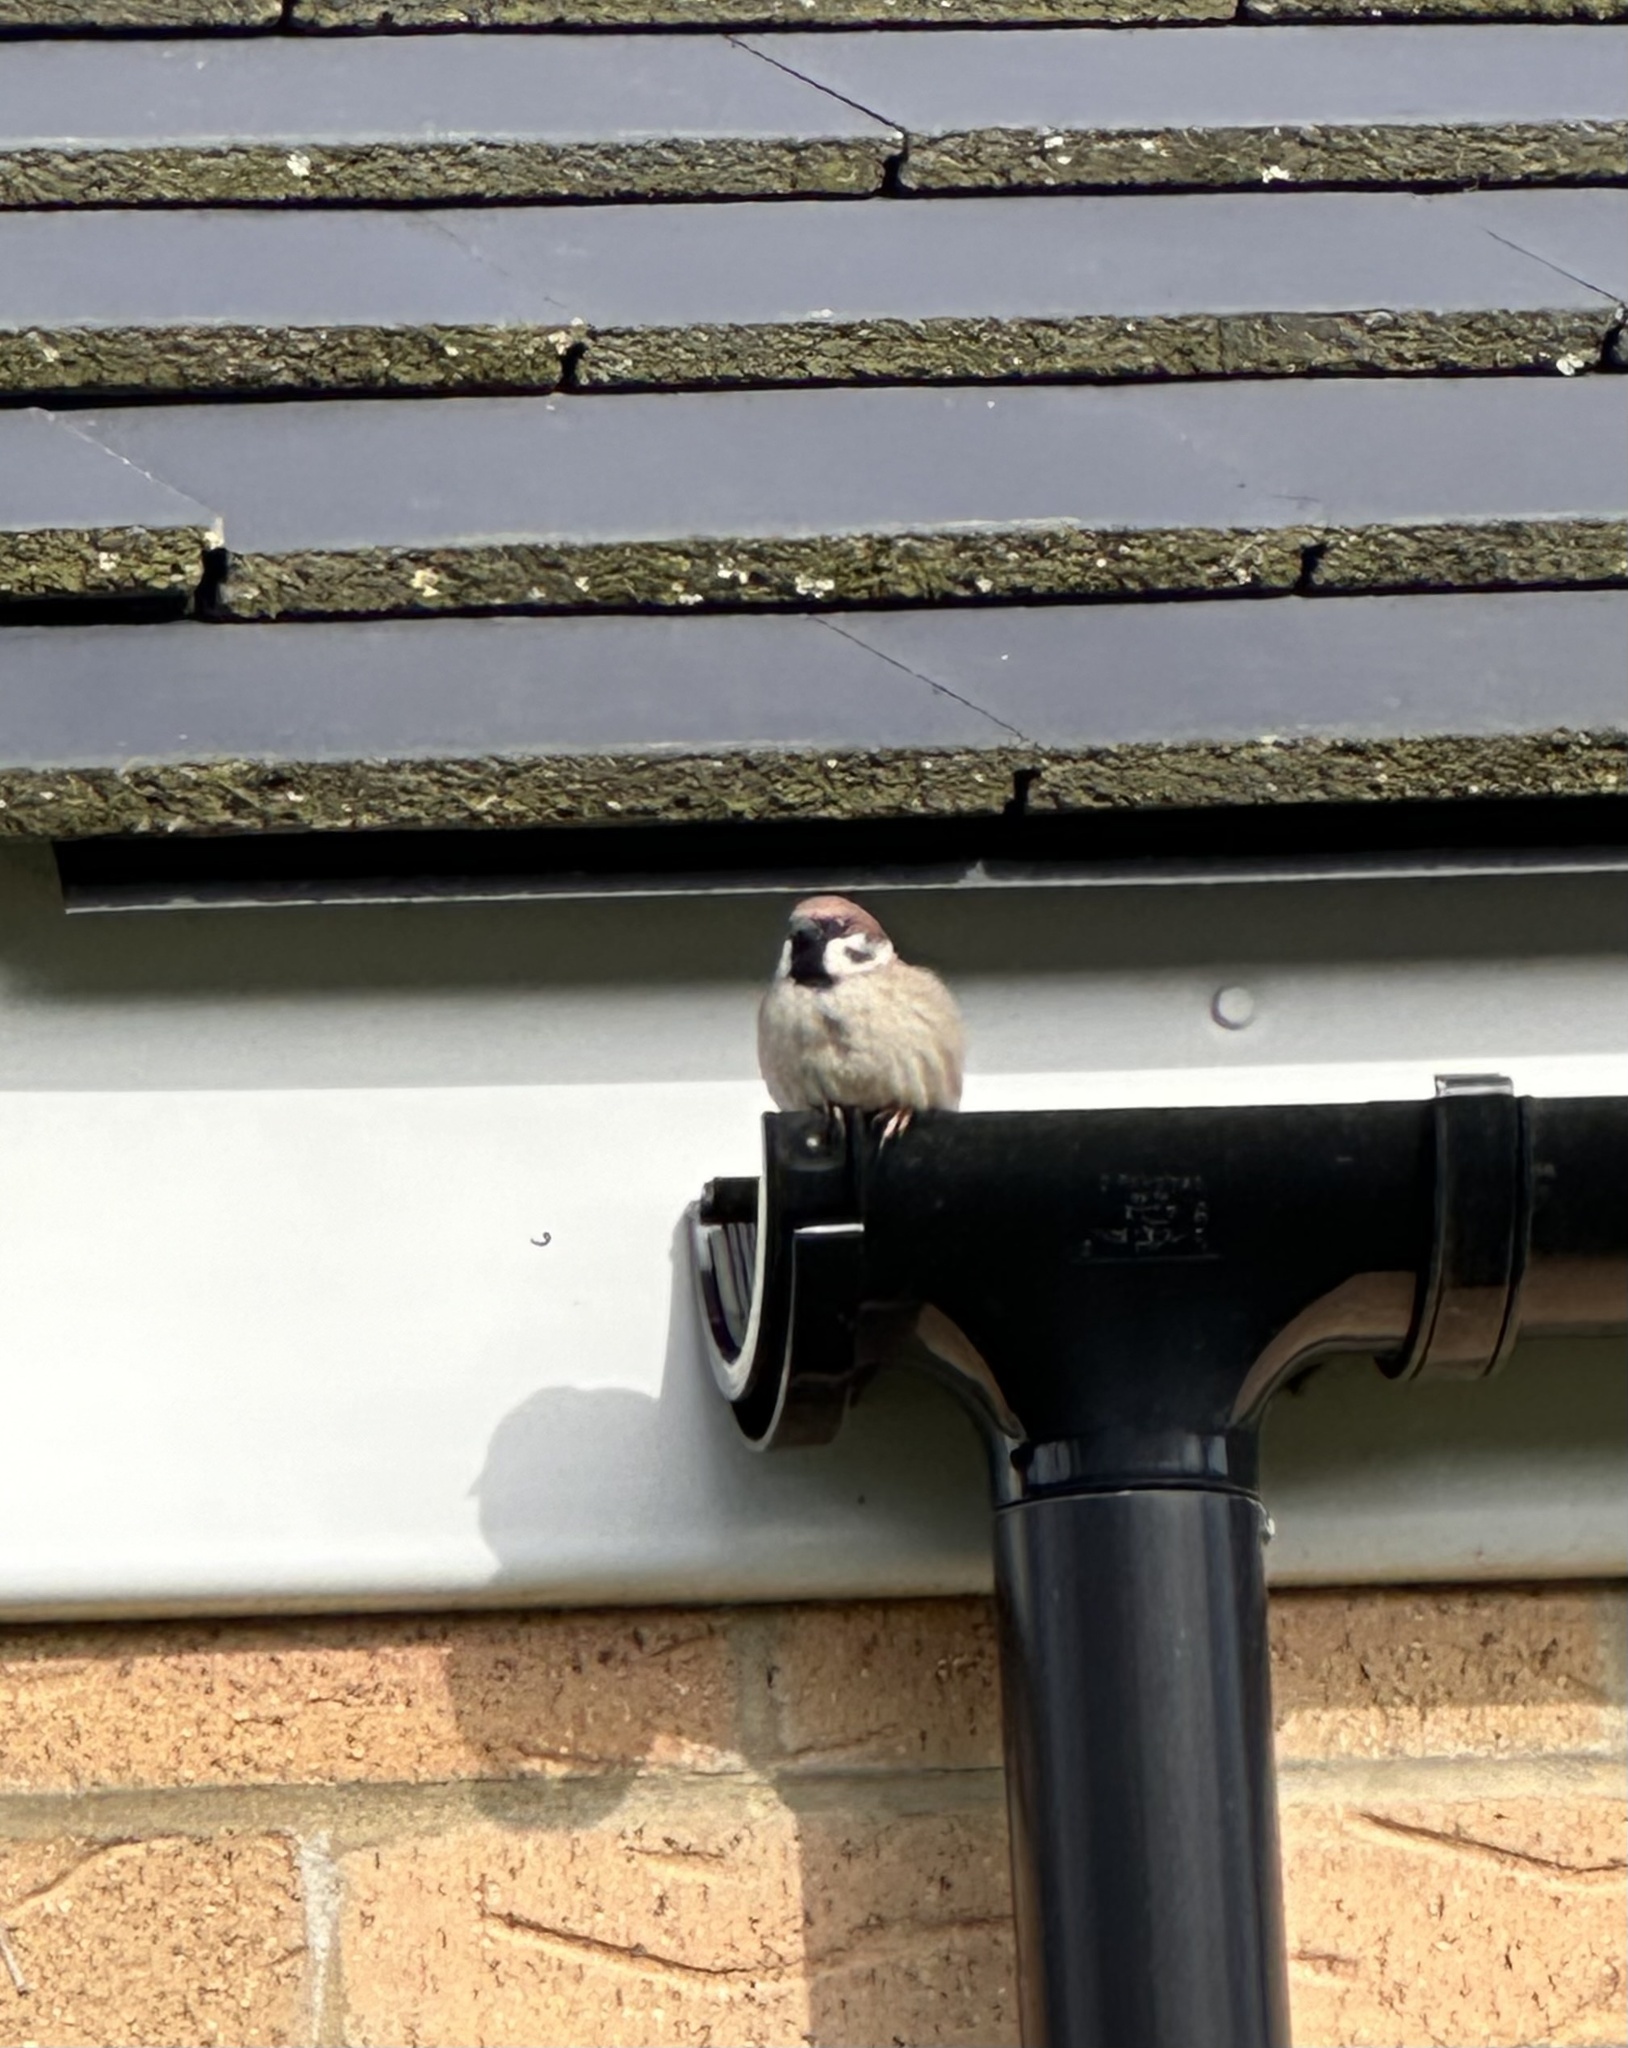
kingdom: Animalia
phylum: Chordata
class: Aves
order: Passeriformes
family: Passeridae
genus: Passer
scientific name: Passer montanus
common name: Eurasian tree sparrow
